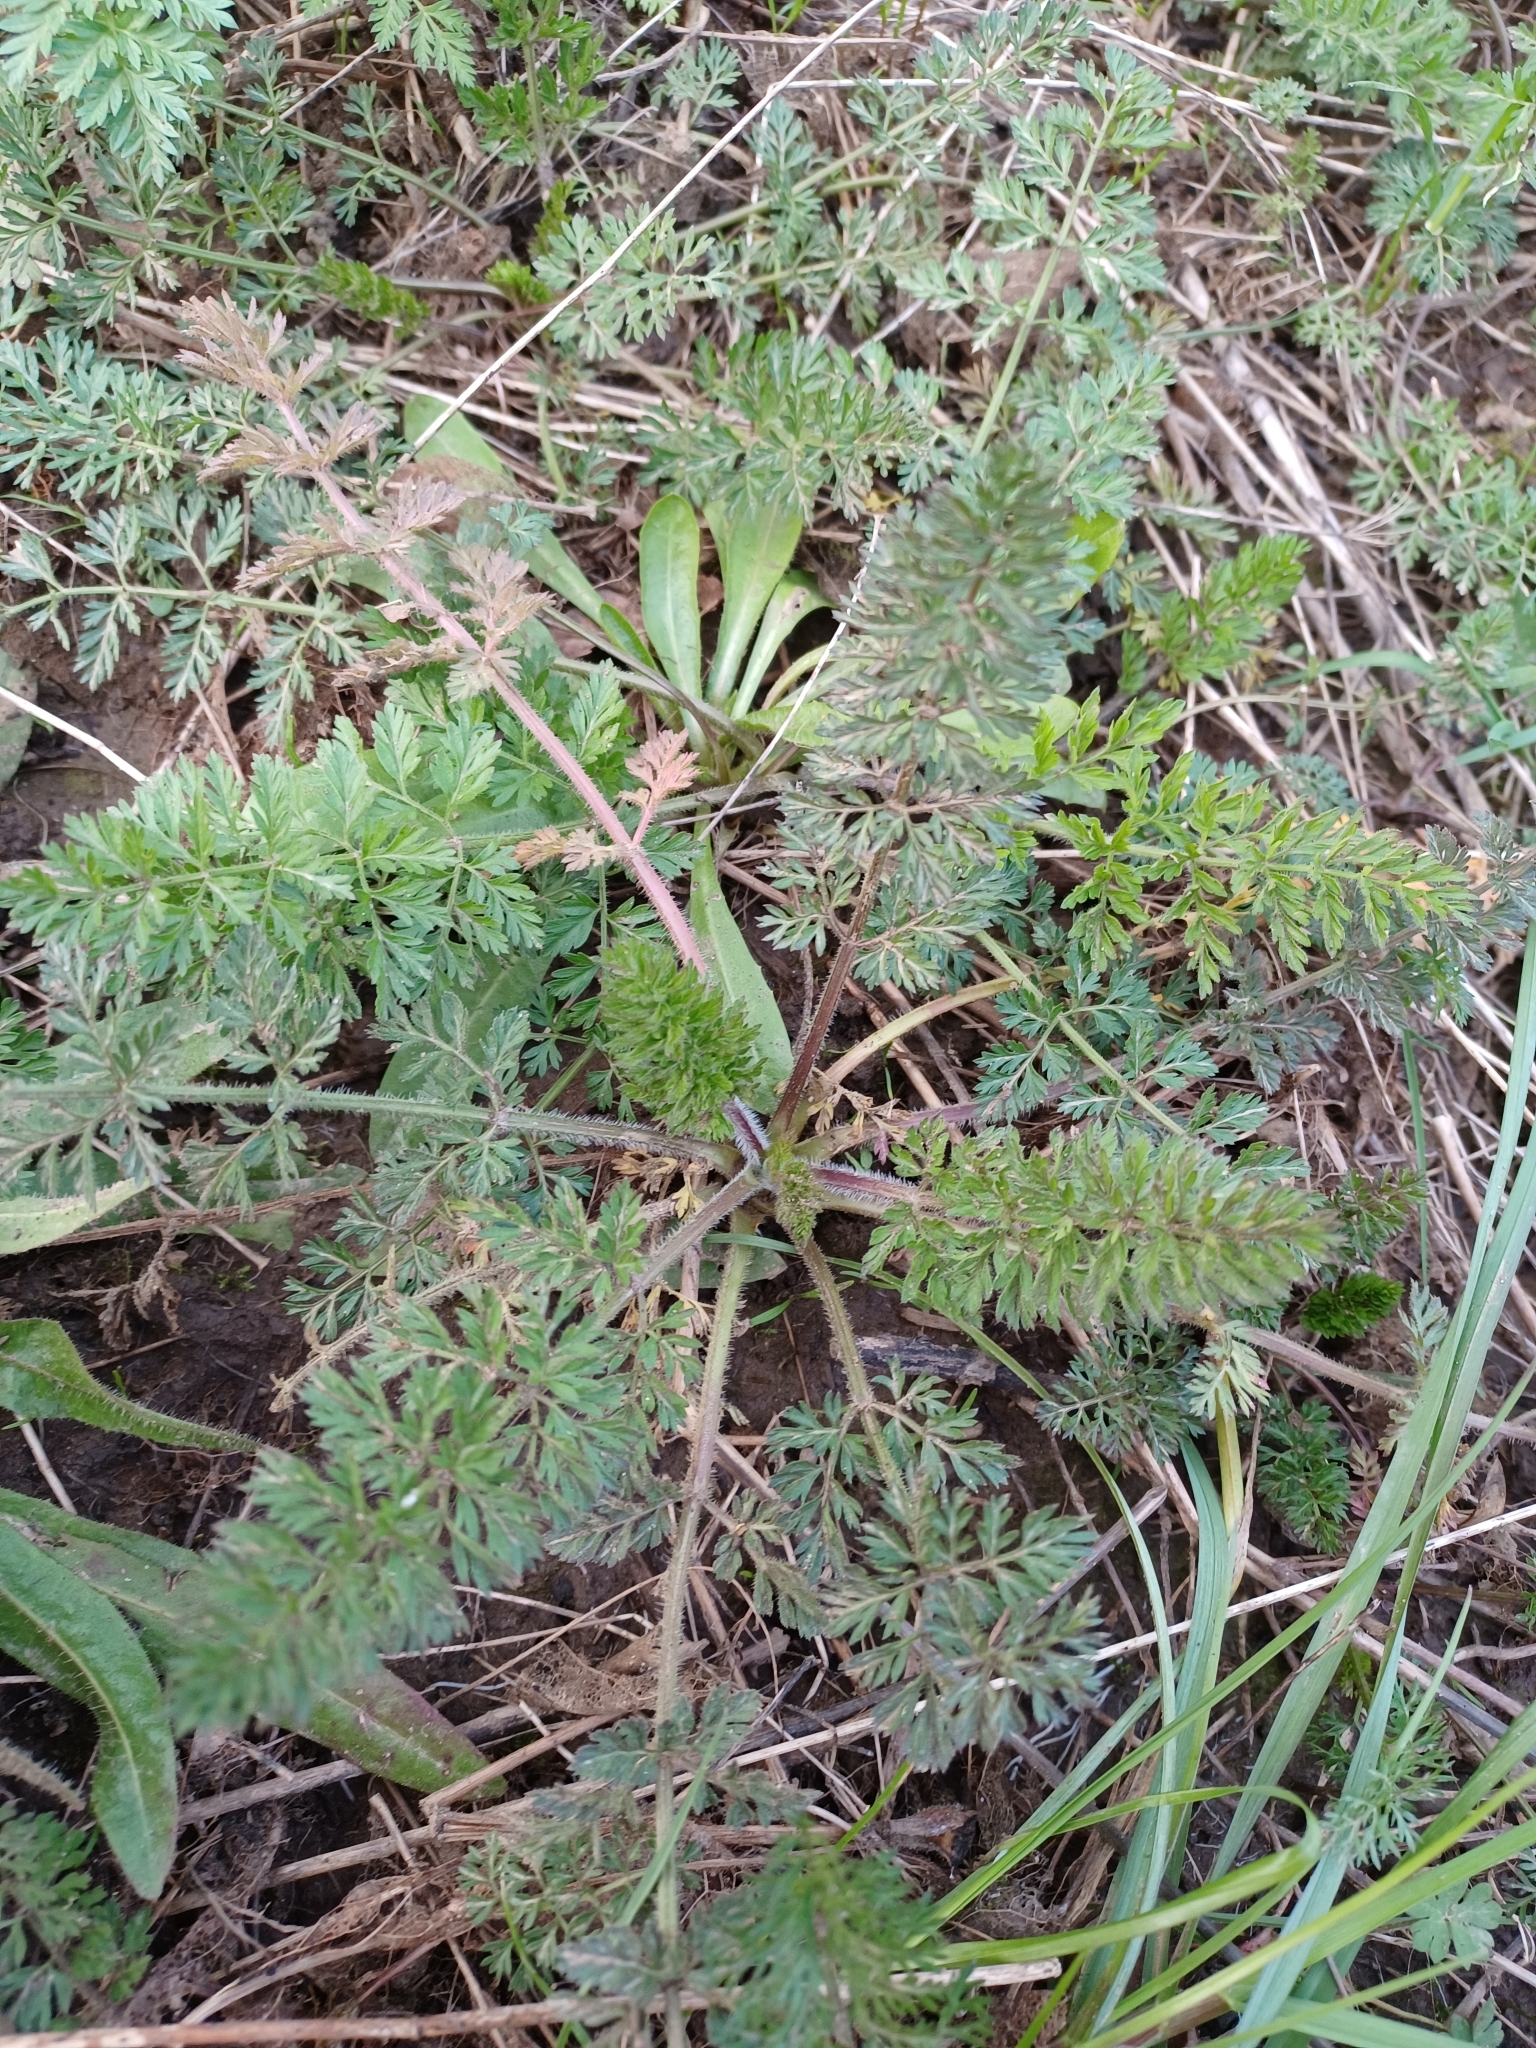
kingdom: Plantae
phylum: Tracheophyta
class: Magnoliopsida
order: Apiales
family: Apiaceae
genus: Daucus
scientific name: Daucus carota
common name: Wild carrot
